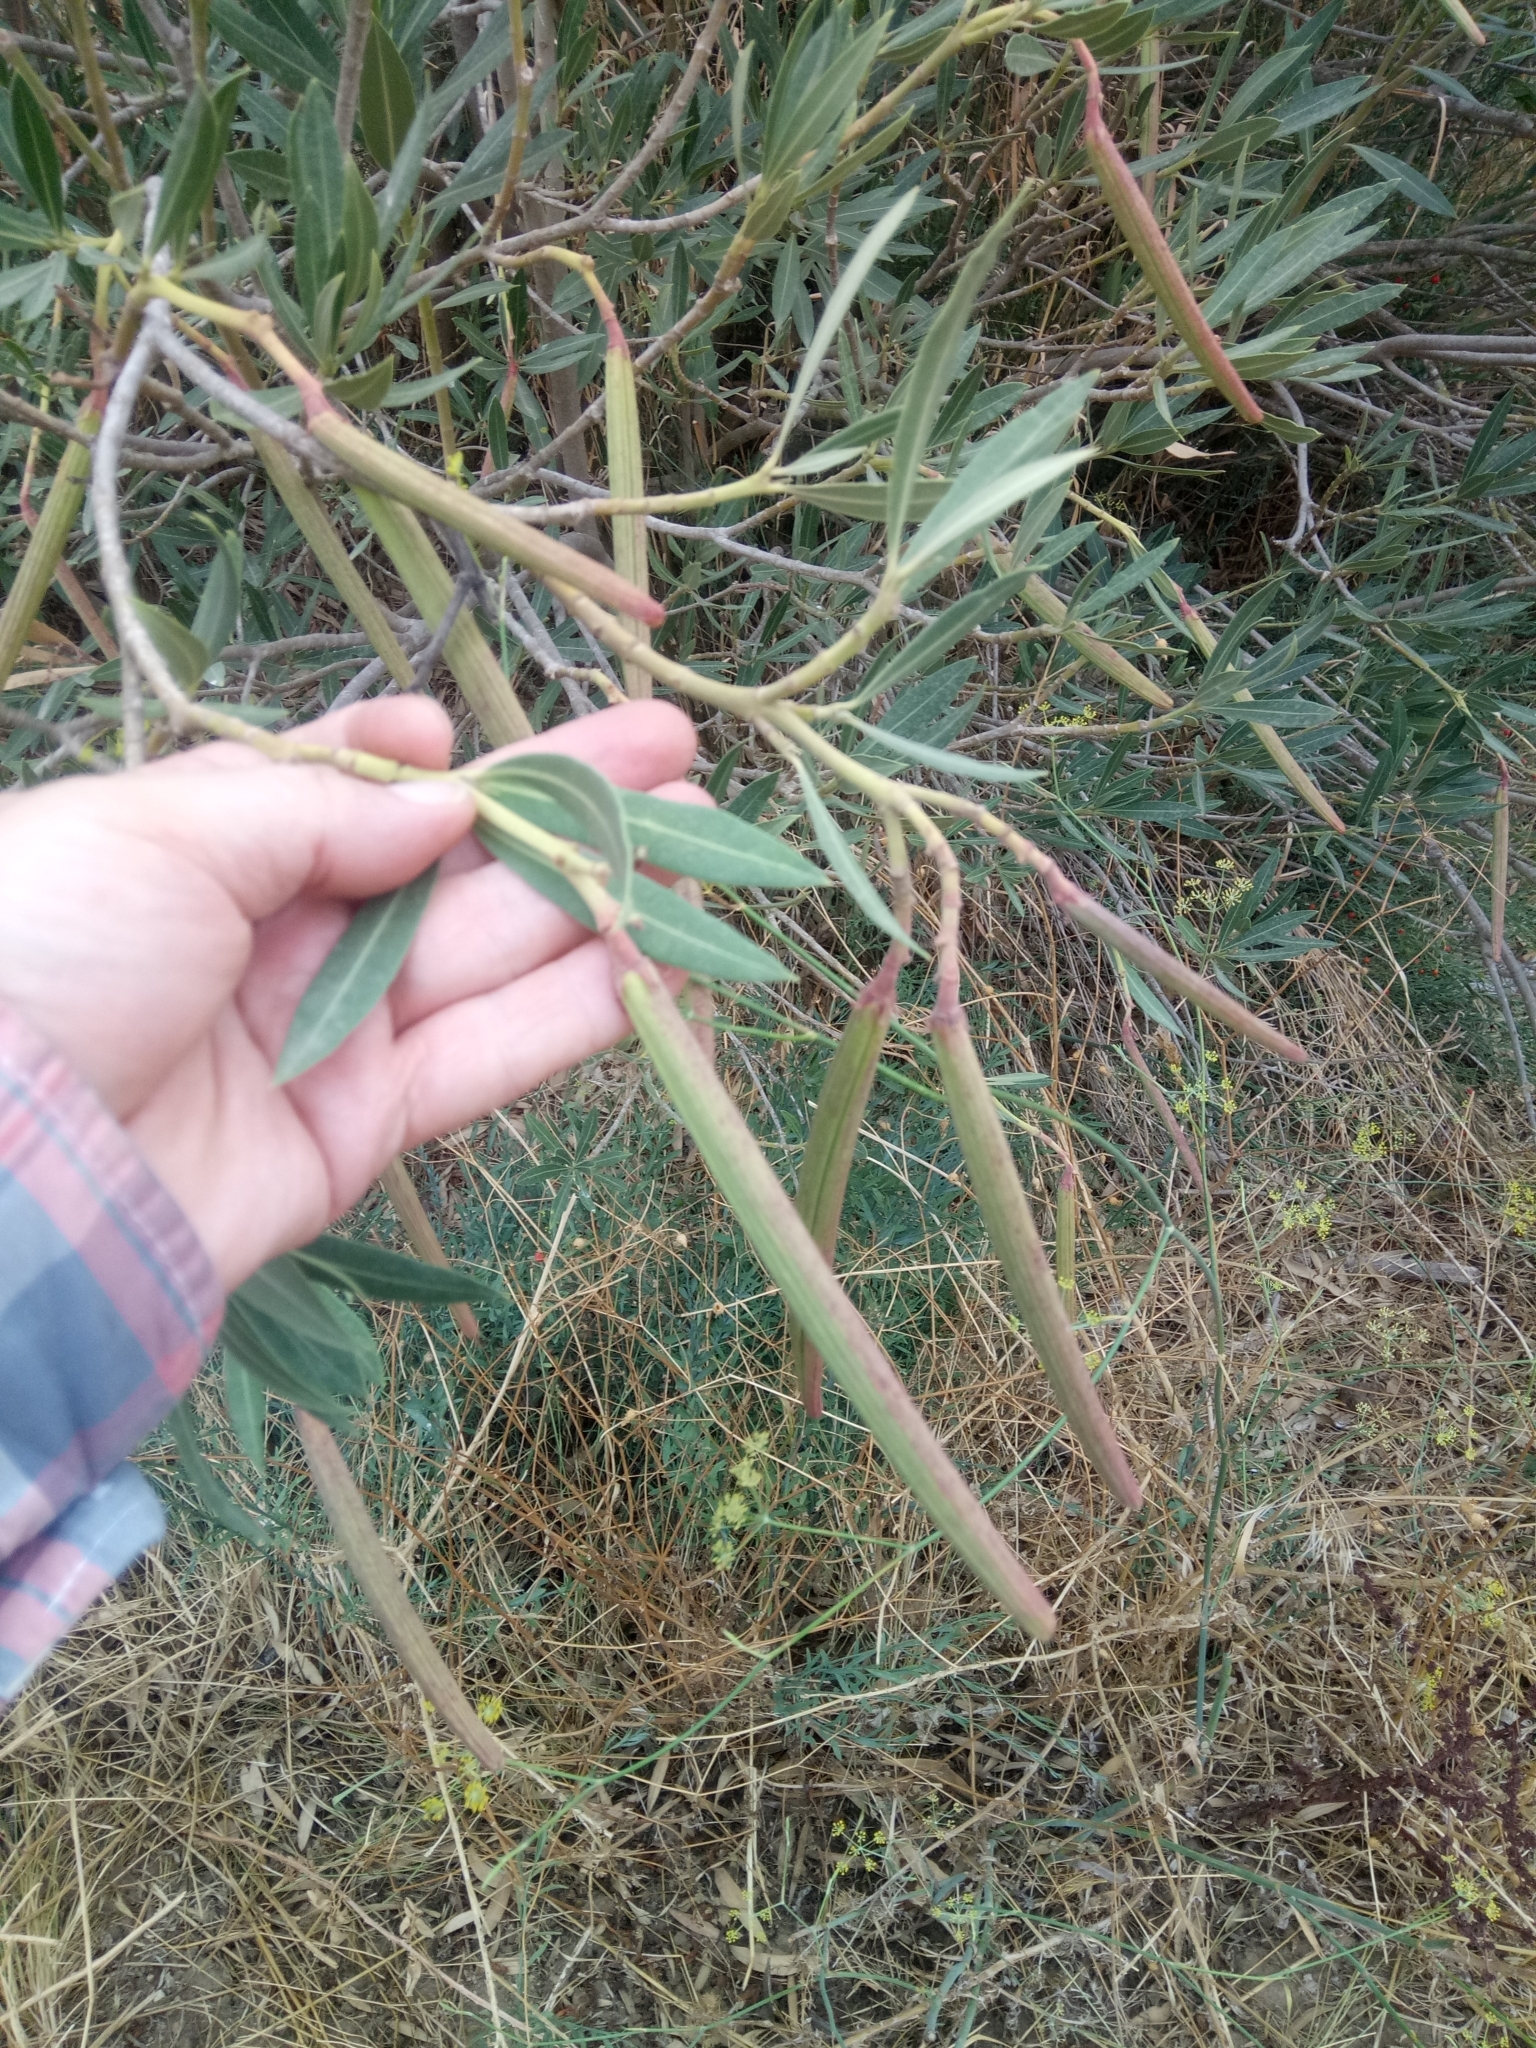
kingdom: Plantae
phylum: Tracheophyta
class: Magnoliopsida
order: Gentianales
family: Apocynaceae
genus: Nerium
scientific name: Nerium oleander
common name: Oleander
